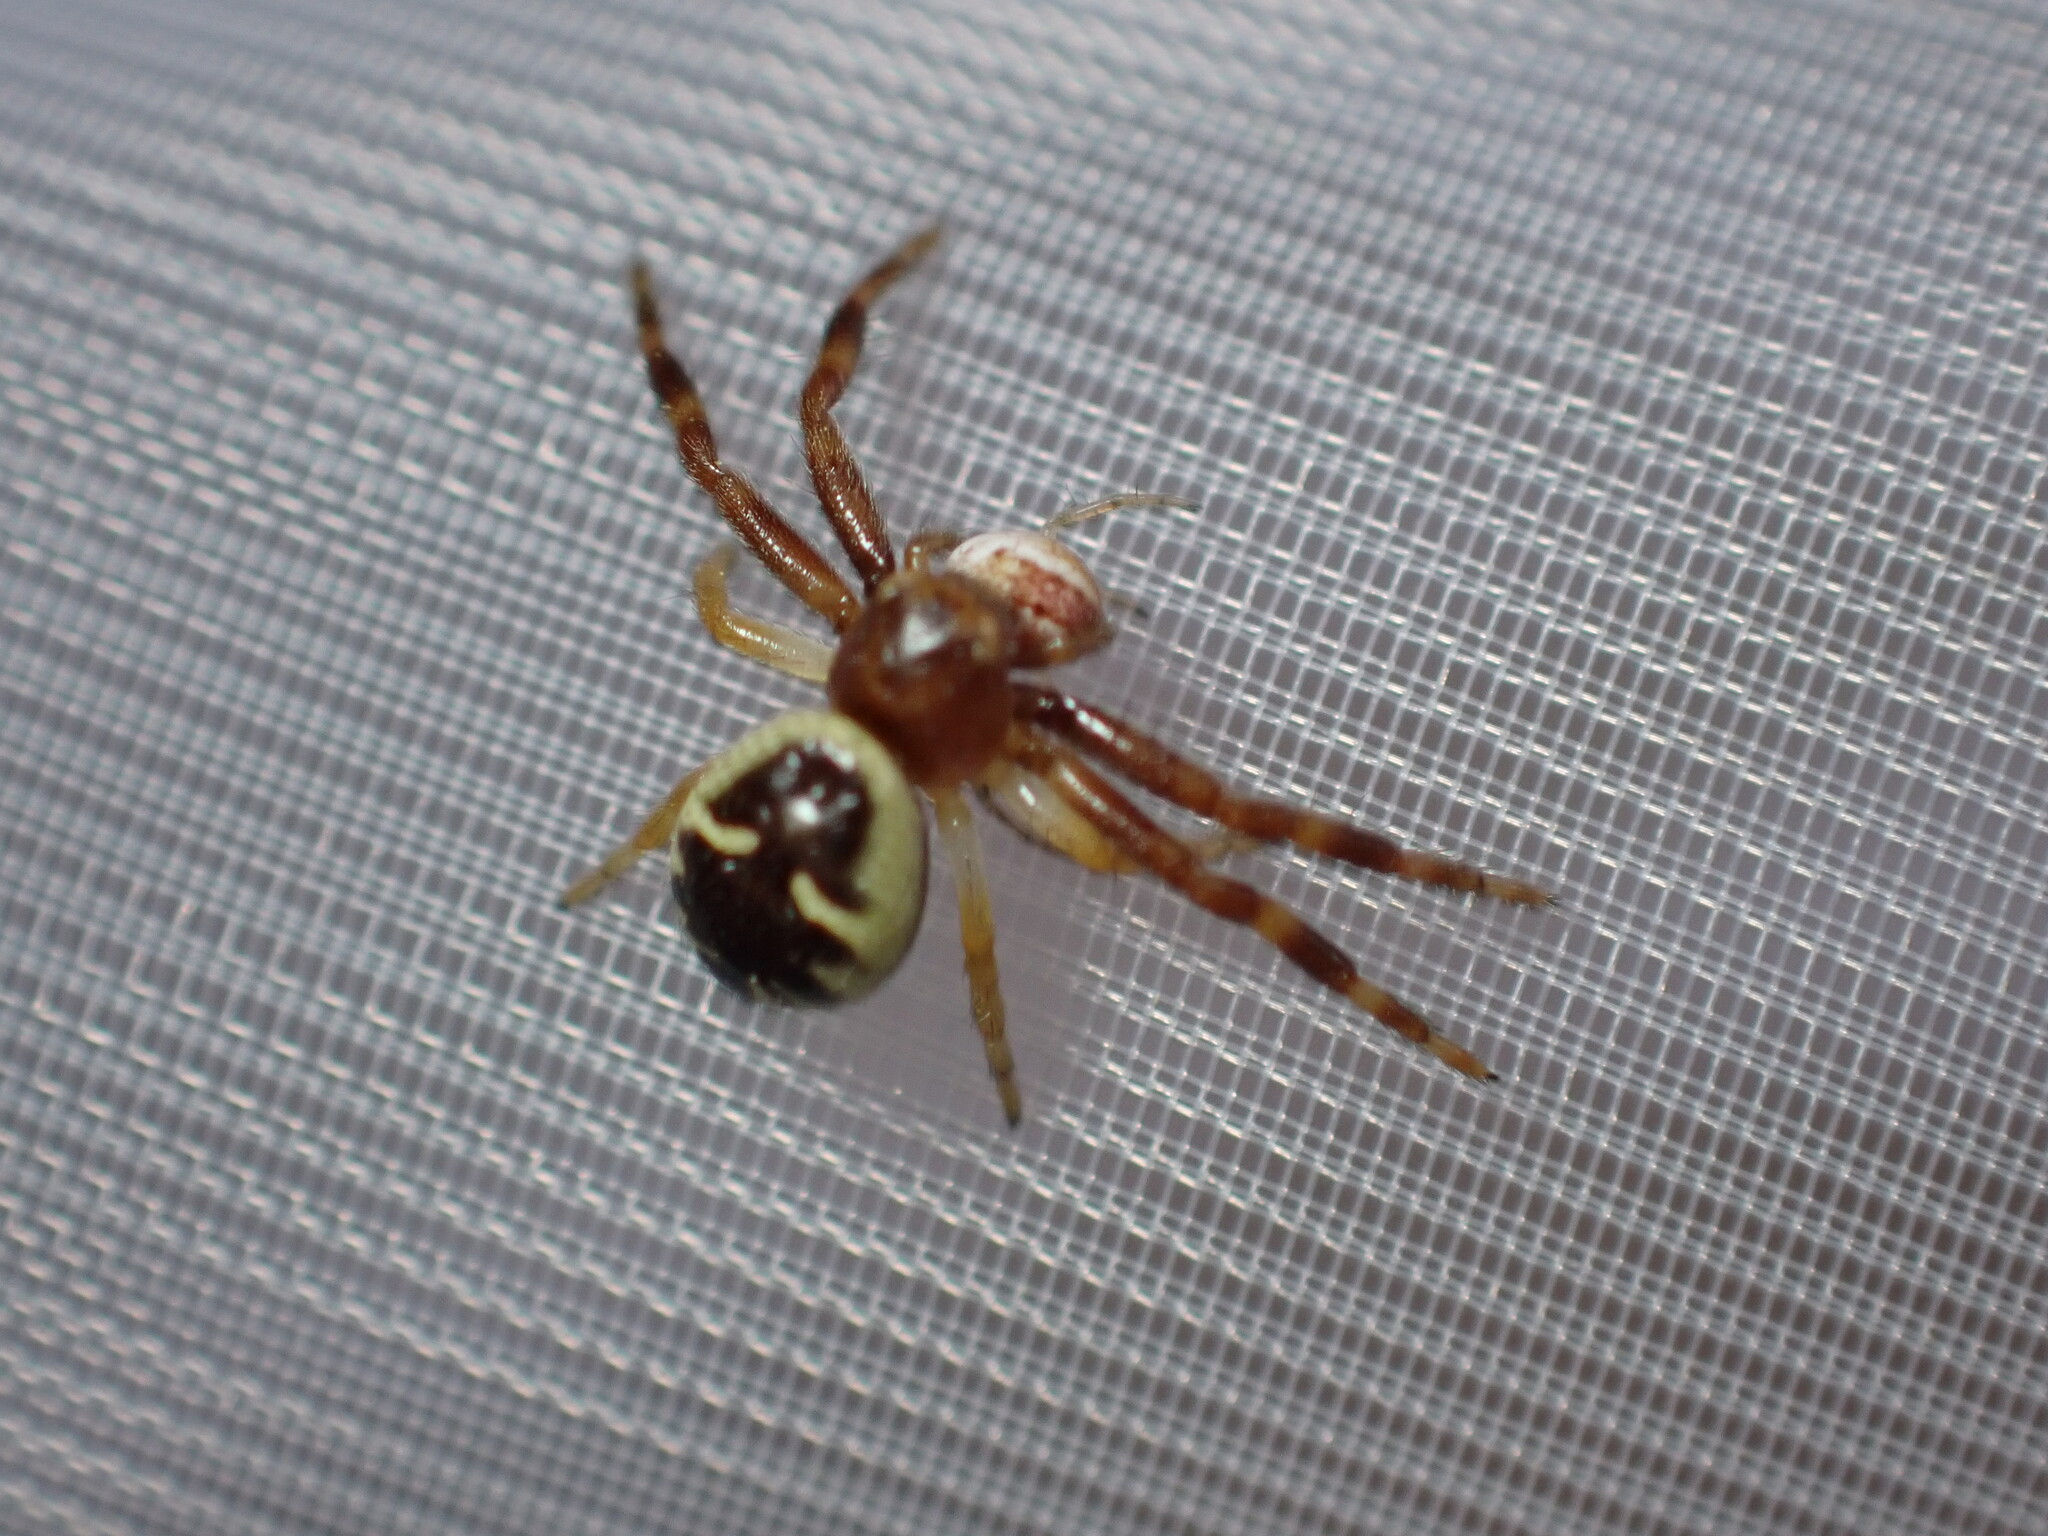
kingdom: Animalia
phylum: Arthropoda
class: Arachnida
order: Araneae
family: Thomisidae
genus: Synema
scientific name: Synema globosum
